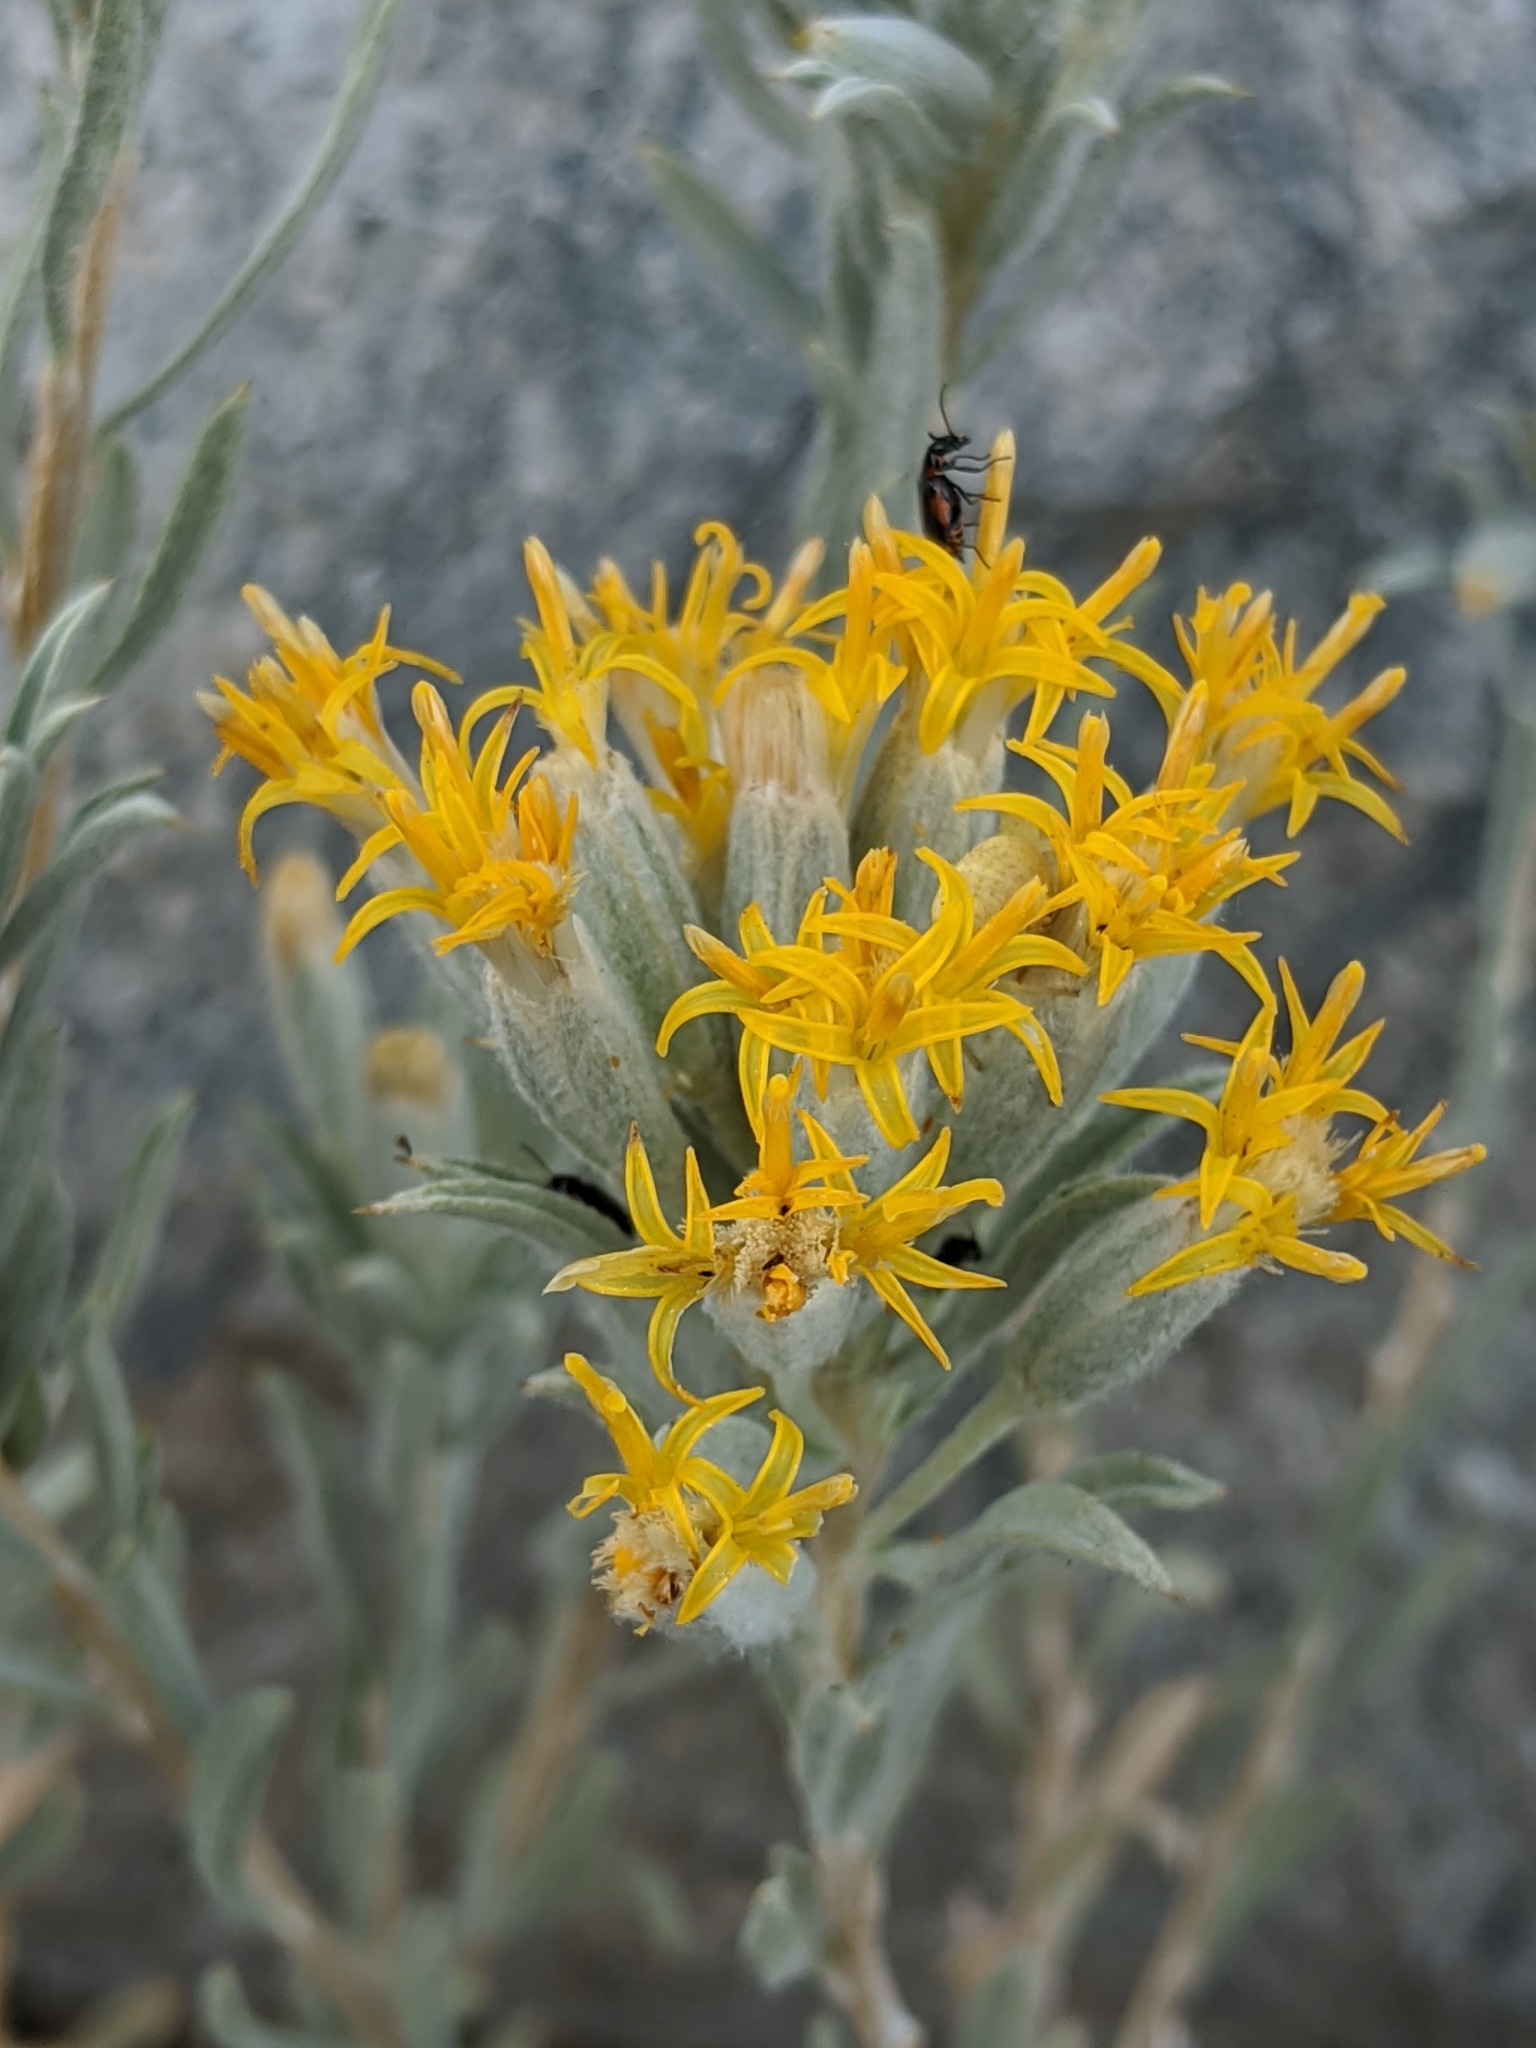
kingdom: Plantae
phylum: Tracheophyta
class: Magnoliopsida
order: Asterales
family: Asteraceae
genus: Tetradymia
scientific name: Tetradymia canescens
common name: Spineless horsebrush
